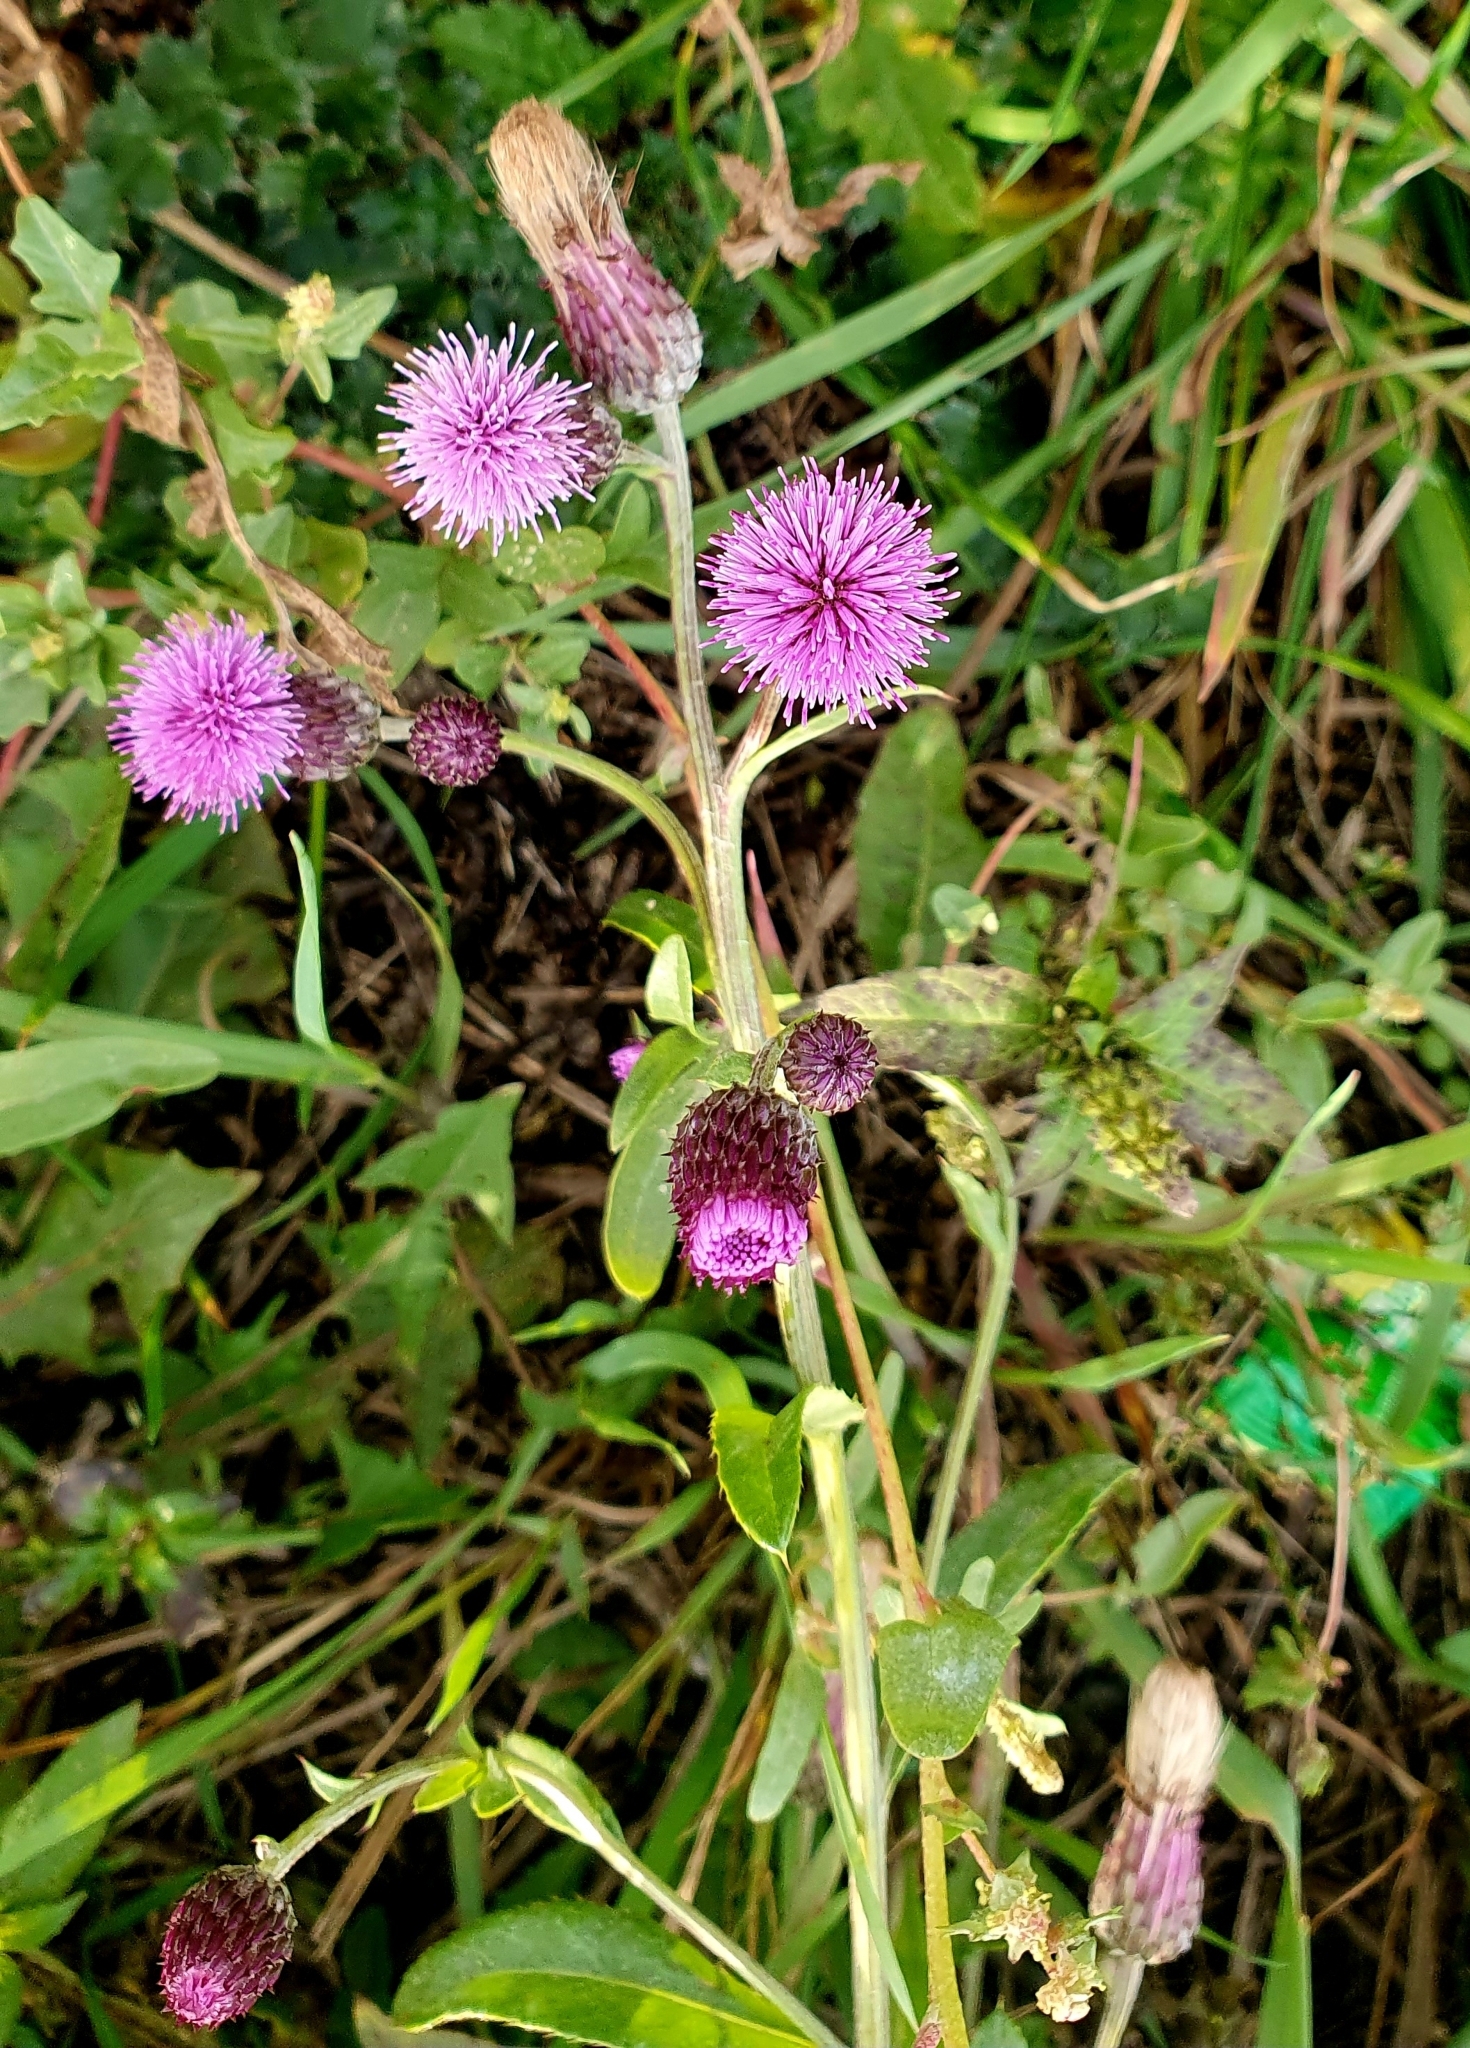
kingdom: Plantae
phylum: Tracheophyta
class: Magnoliopsida
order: Asterales
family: Asteraceae
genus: Cirsium
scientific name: Cirsium arvense
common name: Creeping thistle
